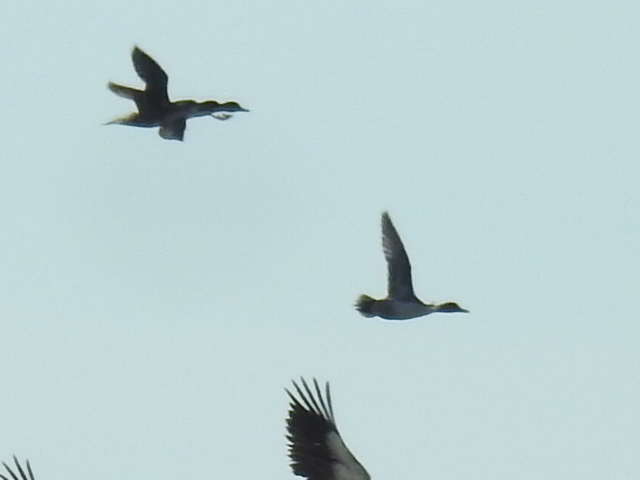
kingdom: Animalia
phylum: Chordata
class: Aves
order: Anseriformes
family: Anatidae
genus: Anas
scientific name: Anas acuta
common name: Northern pintail
